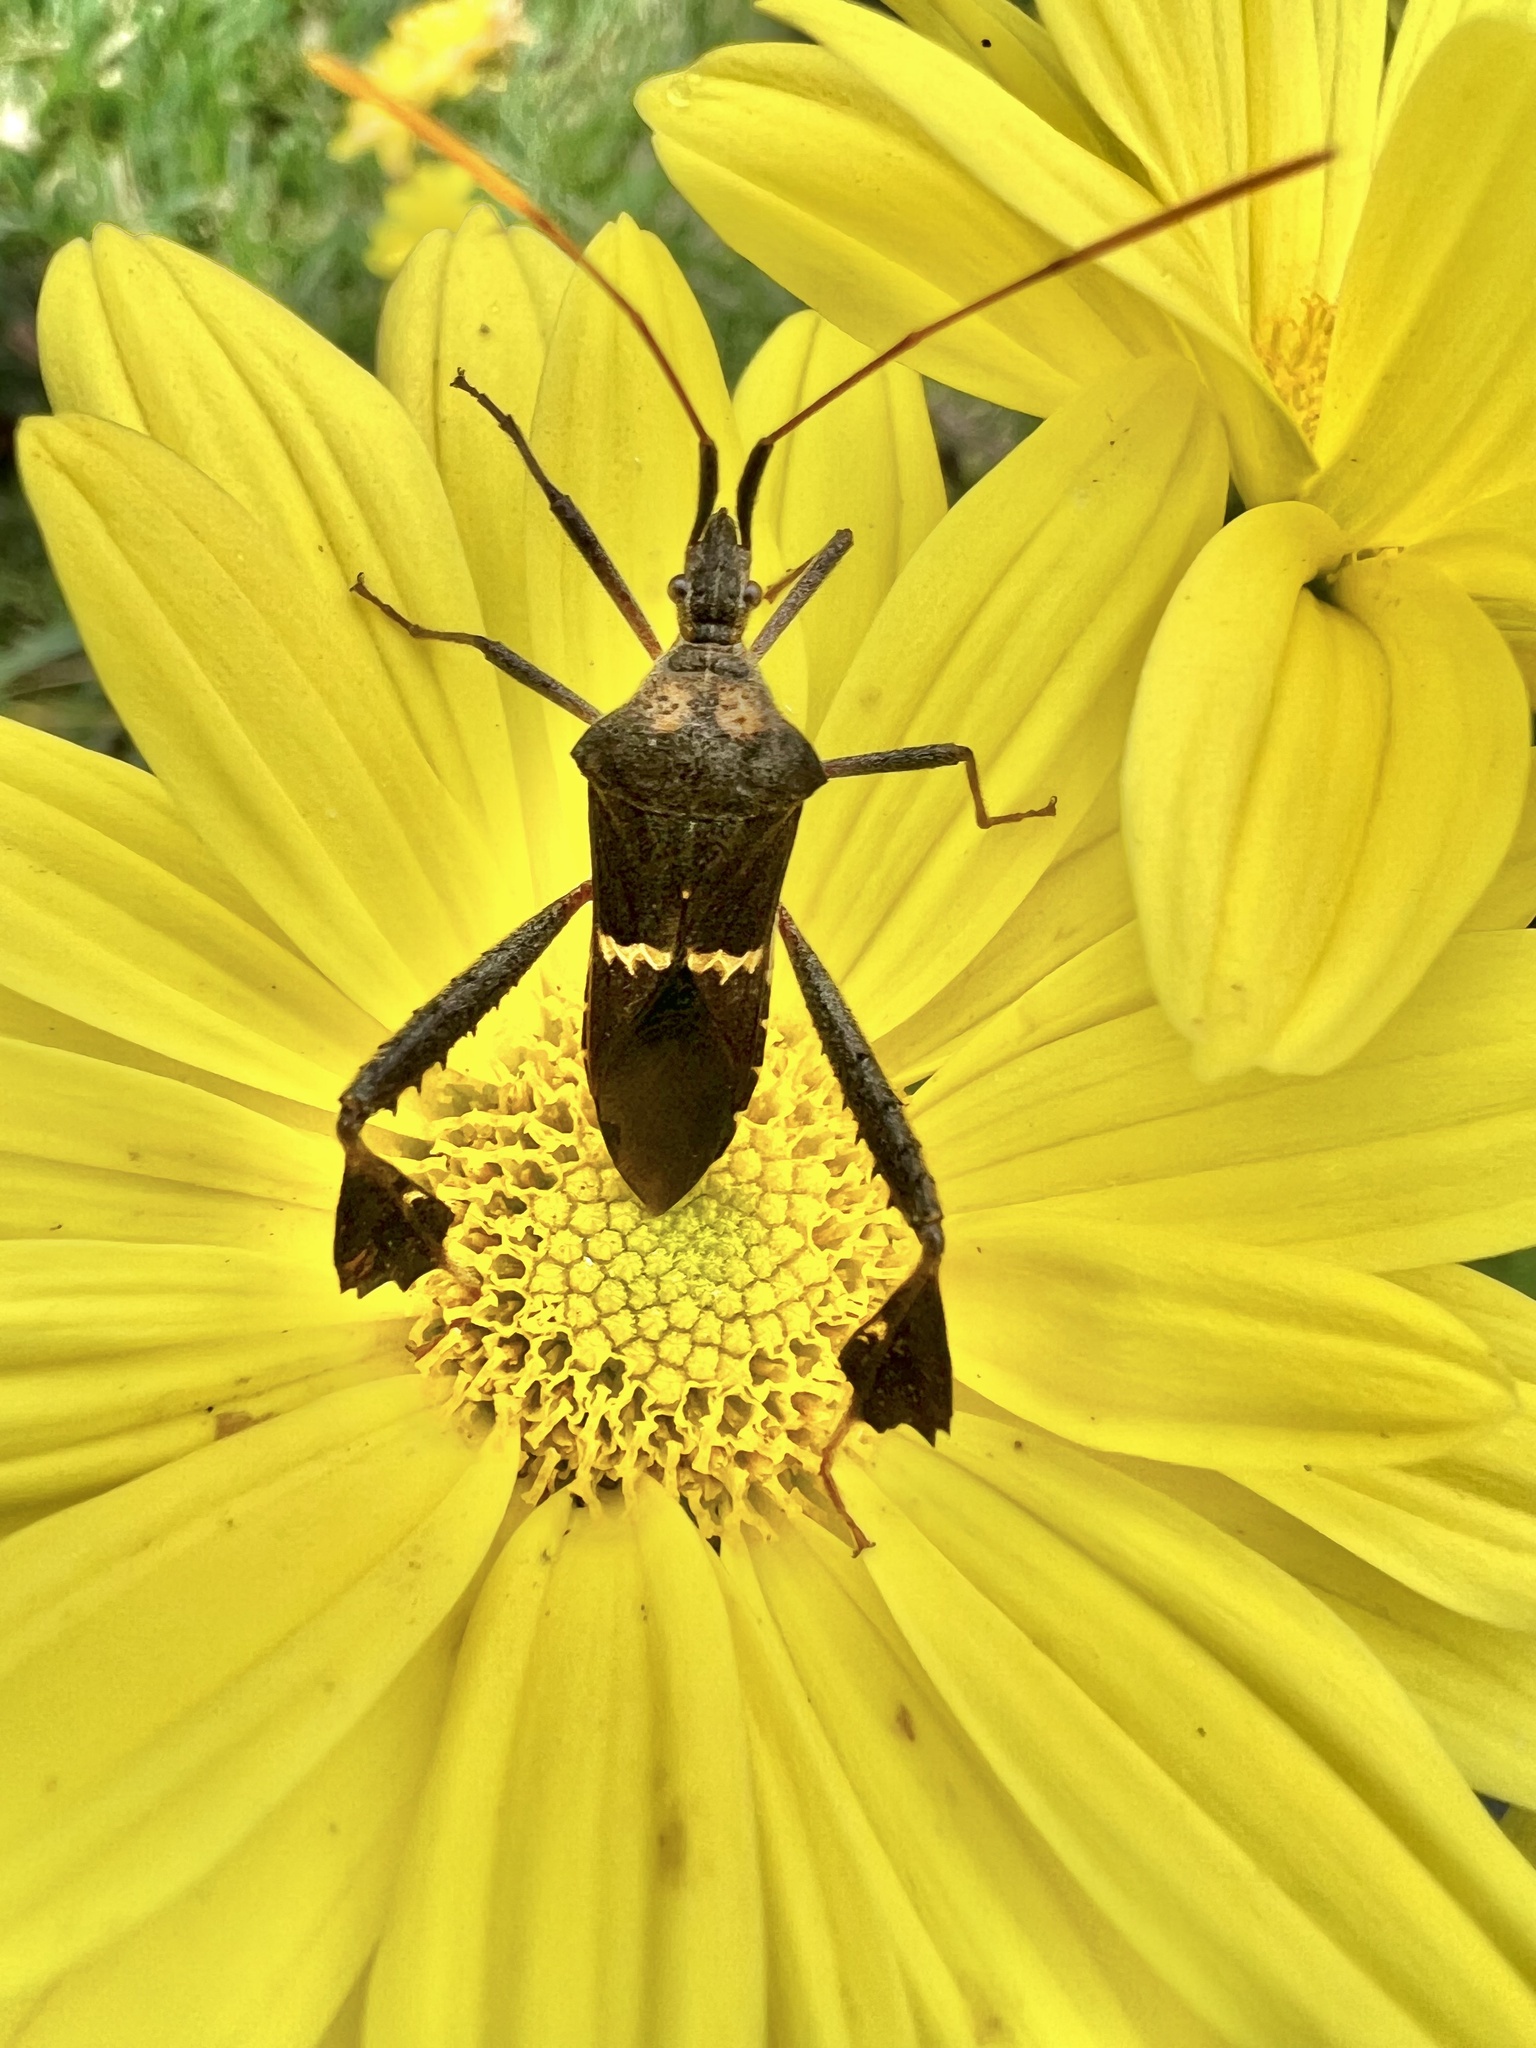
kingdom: Animalia
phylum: Arthropoda
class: Insecta
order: Hemiptera
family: Coreidae
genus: Leptoglossus
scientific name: Leptoglossus zonatus
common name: Large-legged bug
